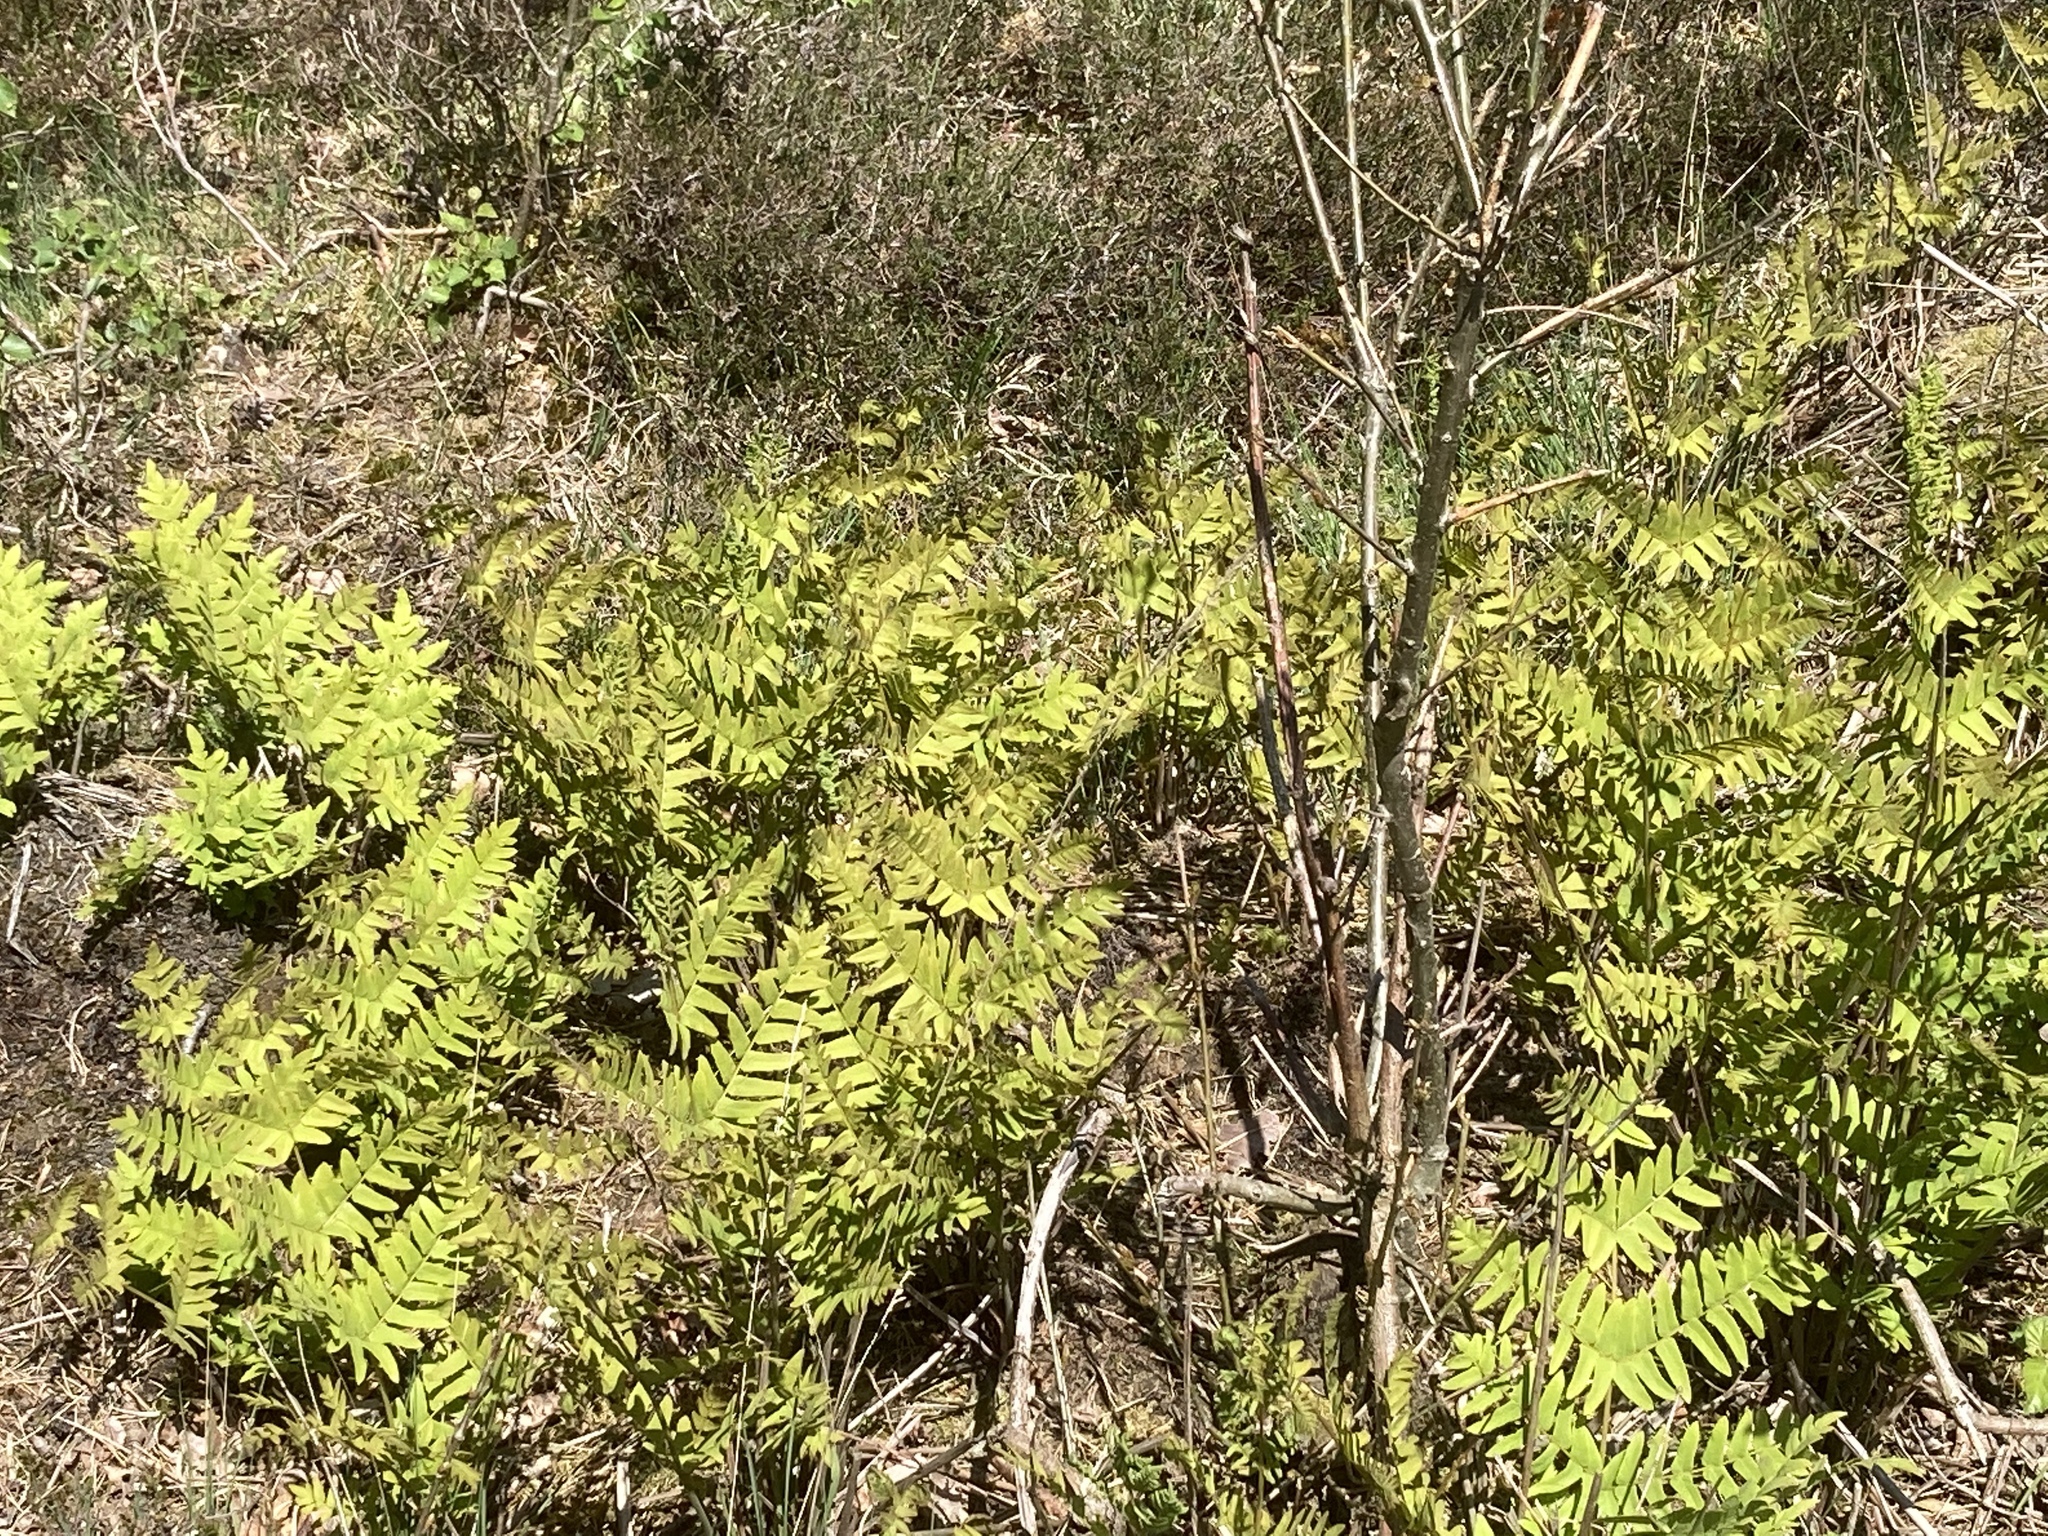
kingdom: Plantae
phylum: Tracheophyta
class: Polypodiopsida
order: Osmundales
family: Osmundaceae
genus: Osmunda
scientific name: Osmunda regalis
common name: Royal fern
